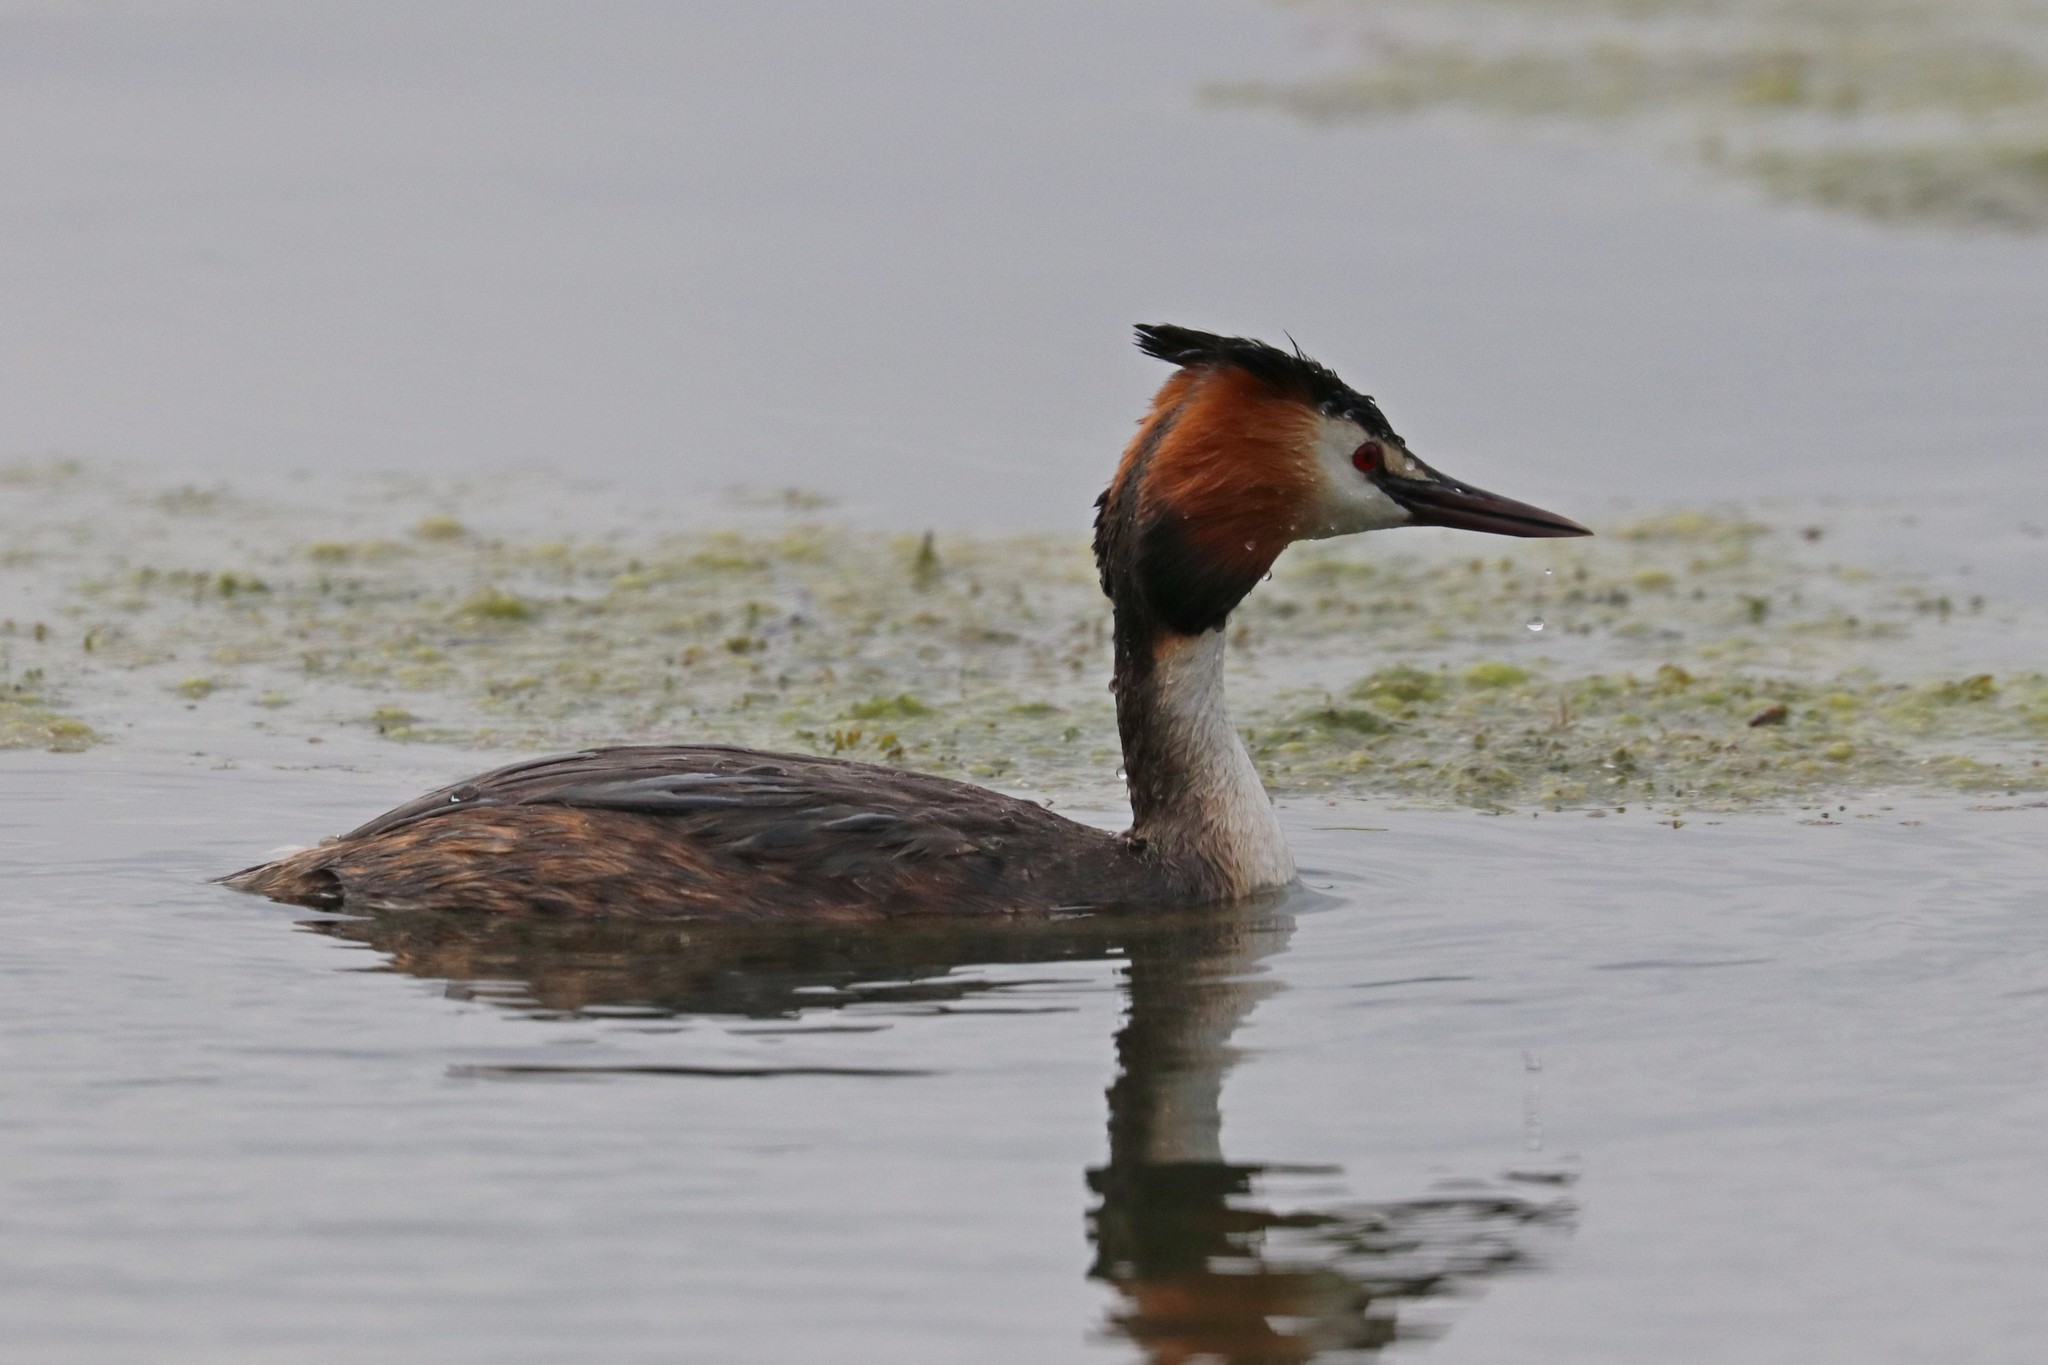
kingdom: Animalia
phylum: Chordata
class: Aves
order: Podicipediformes
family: Podicipedidae
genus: Podiceps
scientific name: Podiceps cristatus
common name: Great crested grebe
